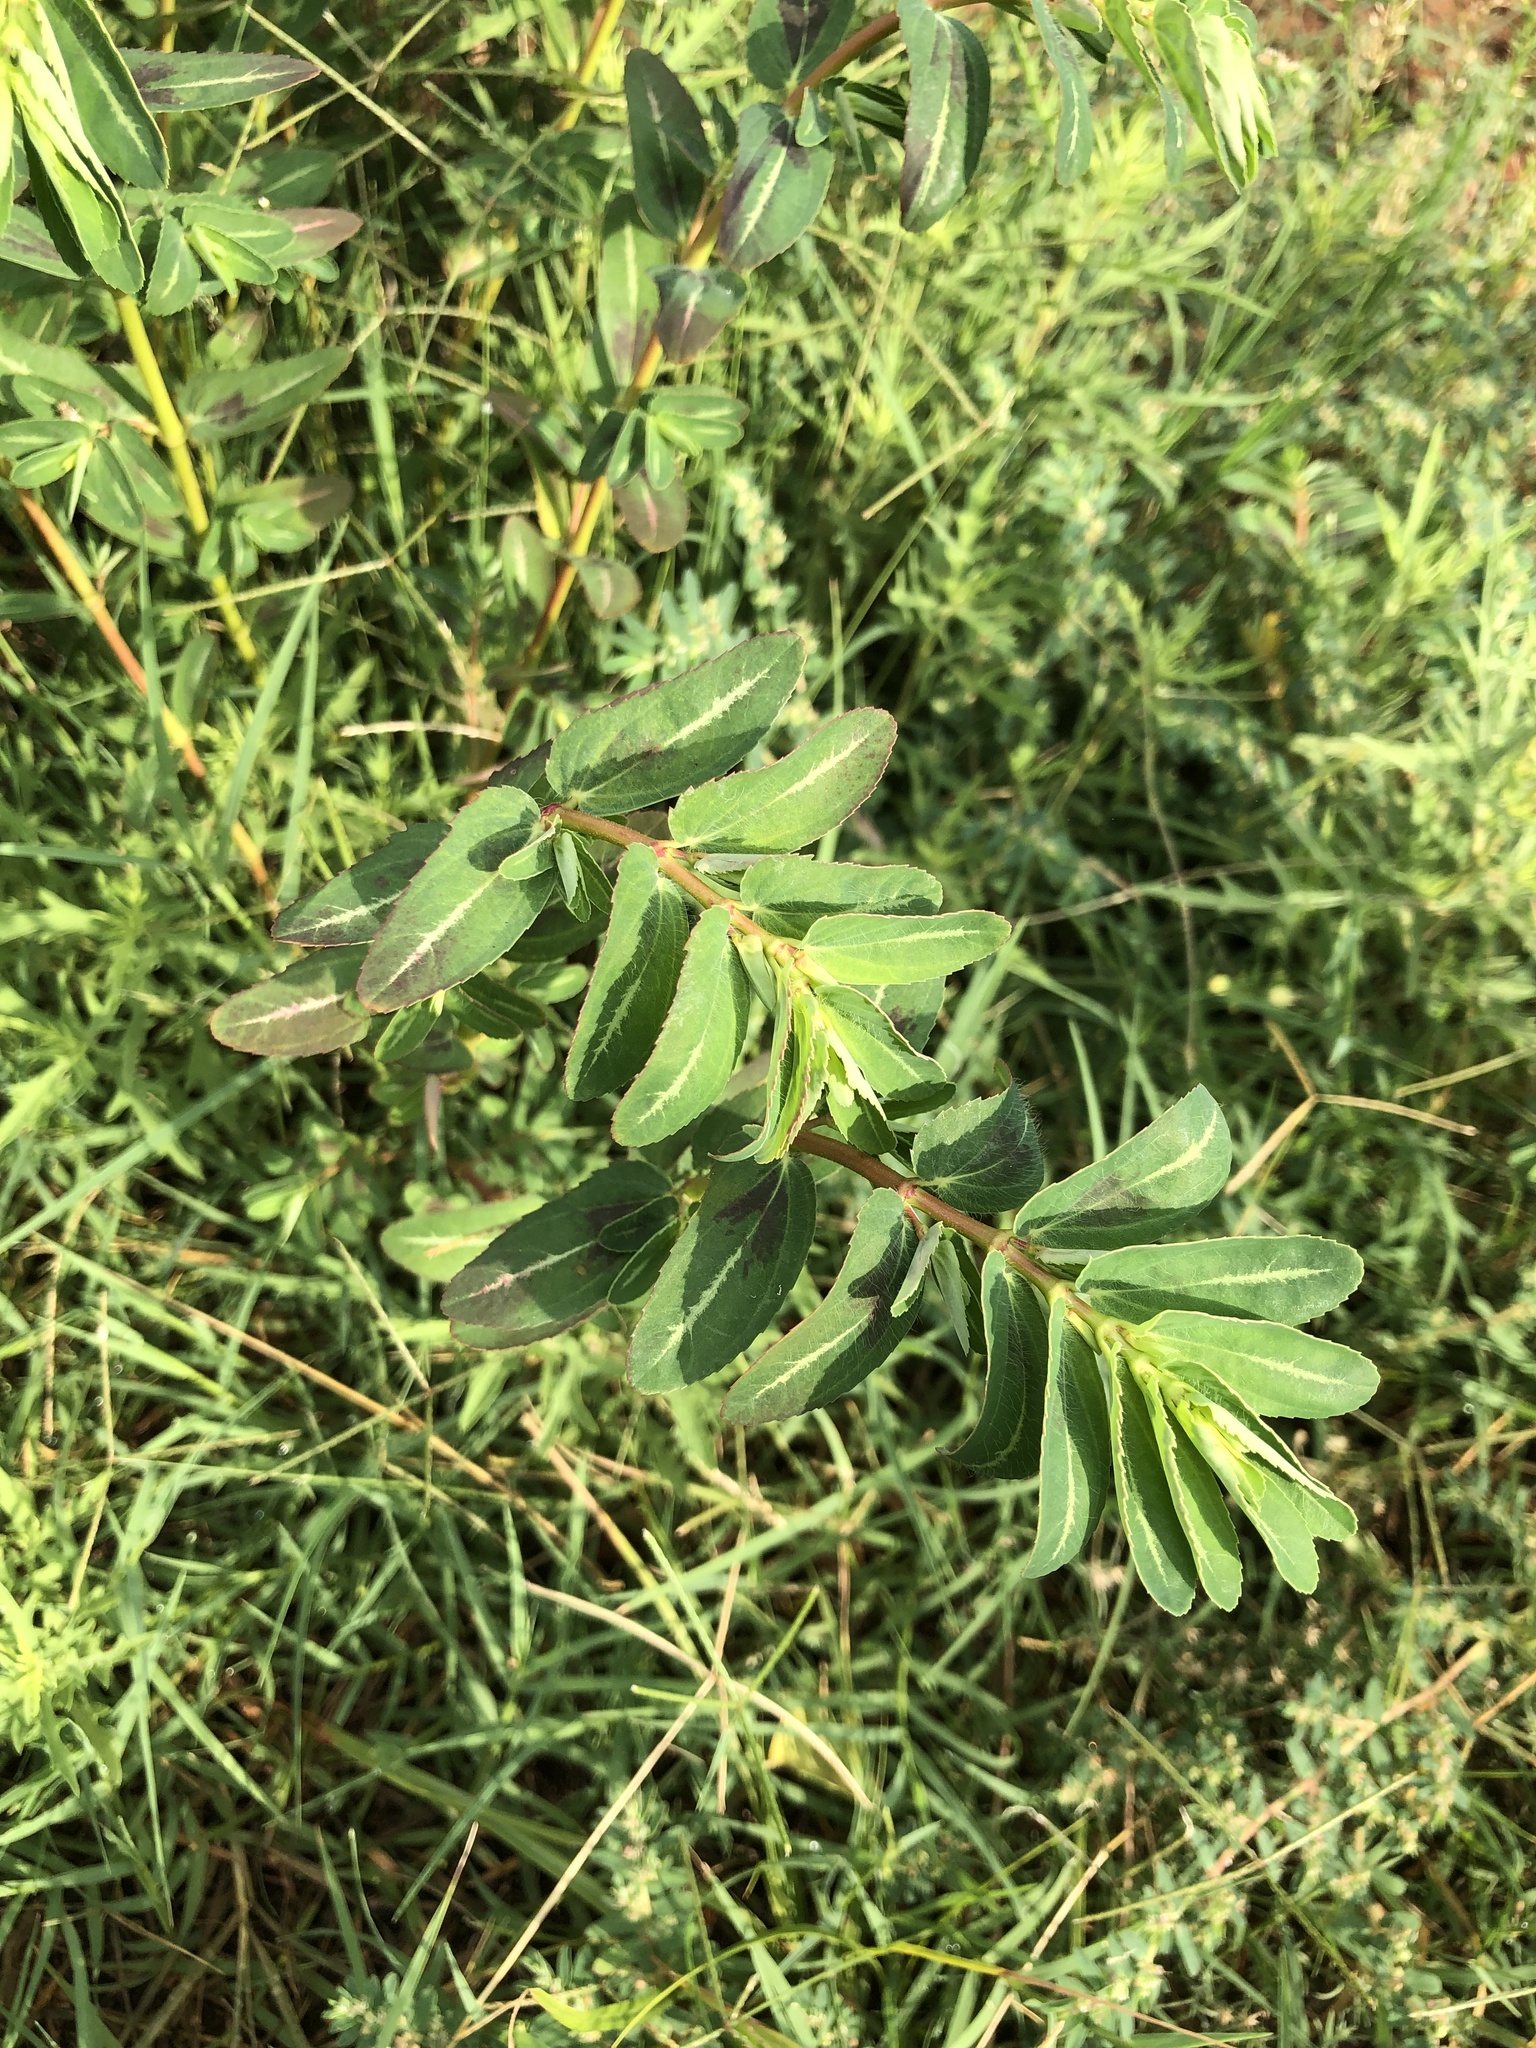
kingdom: Plantae
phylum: Tracheophyta
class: Magnoliopsida
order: Malpighiales
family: Euphorbiaceae
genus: Euphorbia
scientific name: Euphorbia nutans
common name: Eyebane
